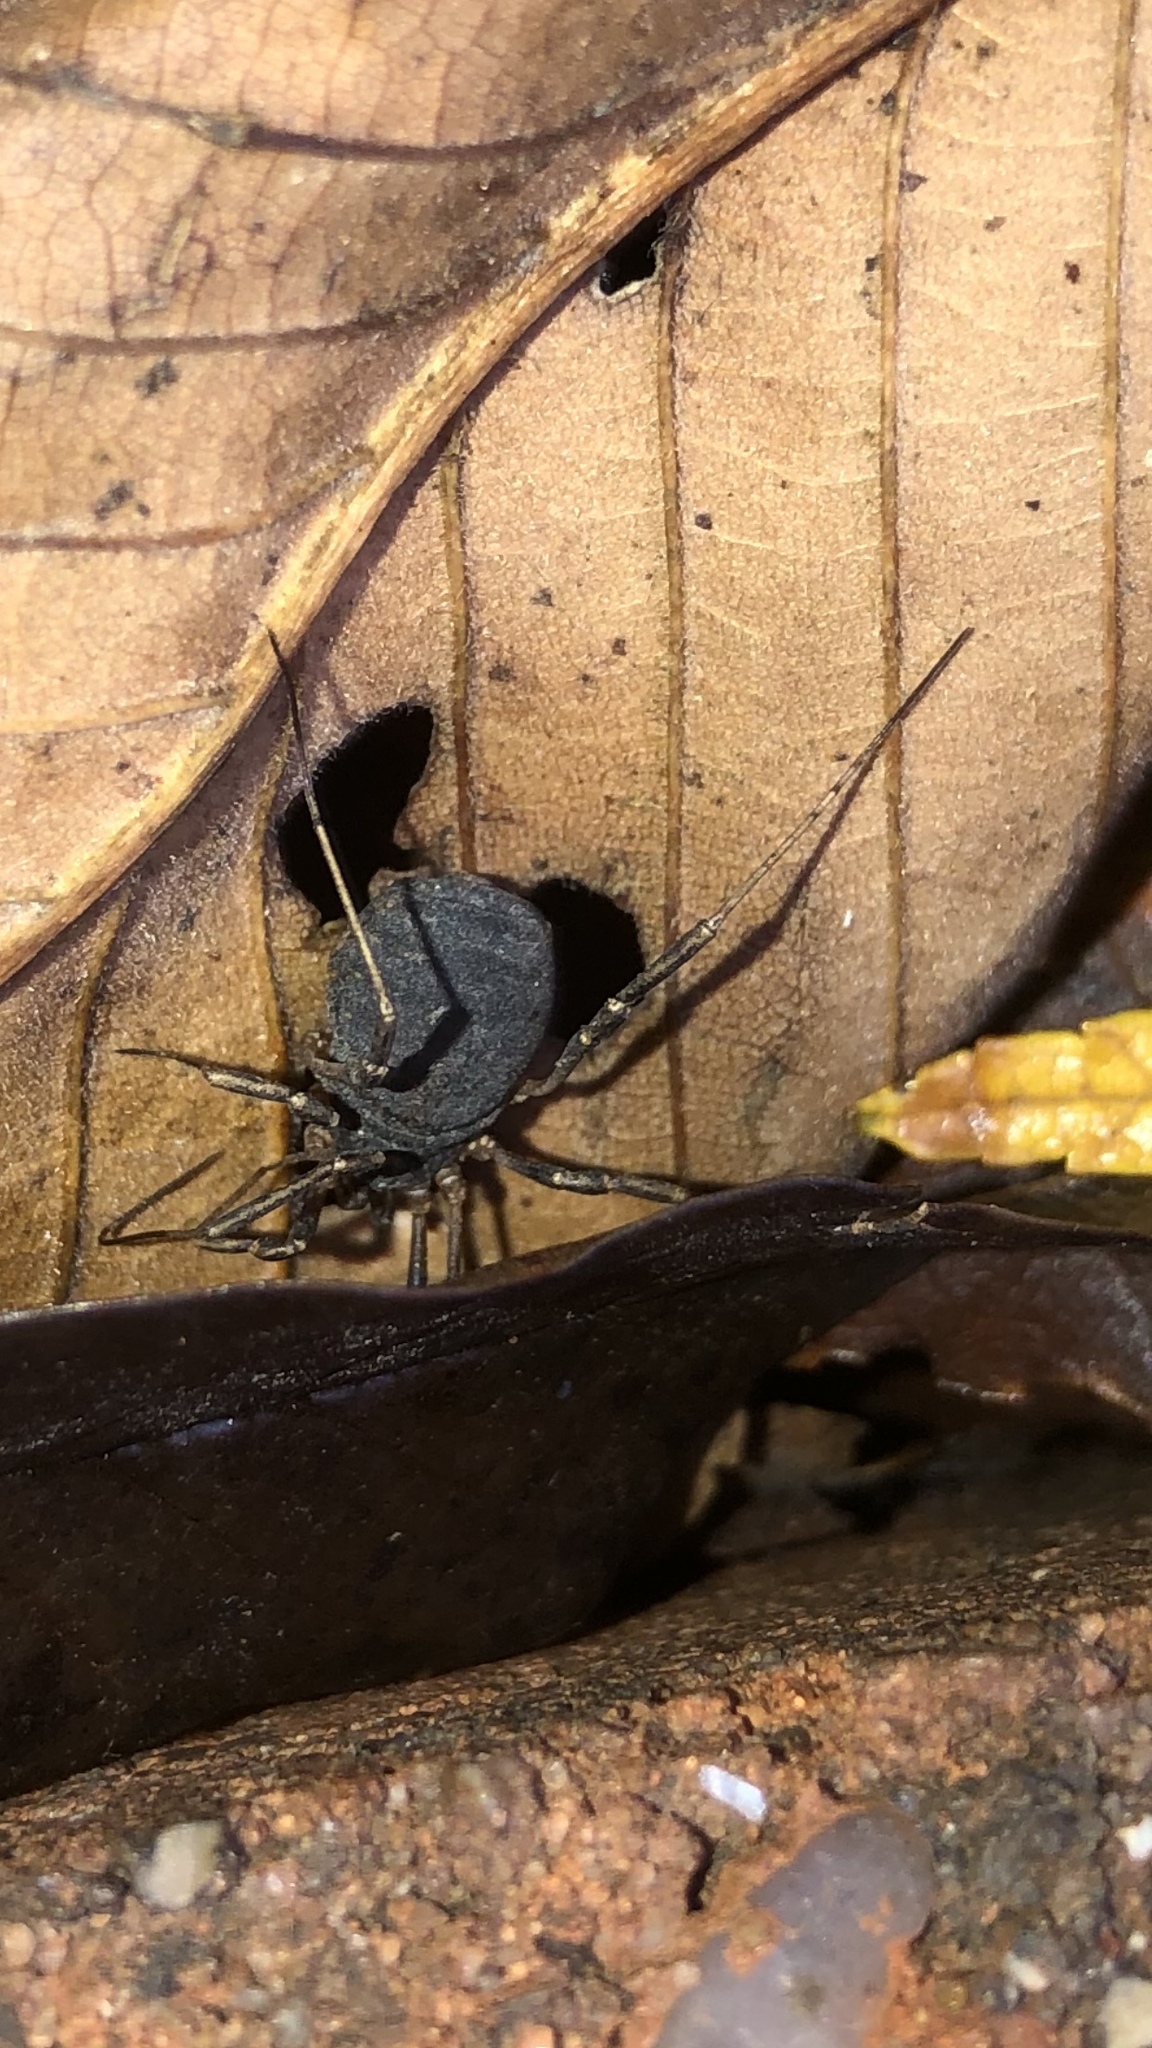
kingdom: Animalia
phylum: Arthropoda
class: Arachnida
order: Opiliones
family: Sclerosomatidae
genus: Eumesosoma
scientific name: Eumesosoma roeweri
